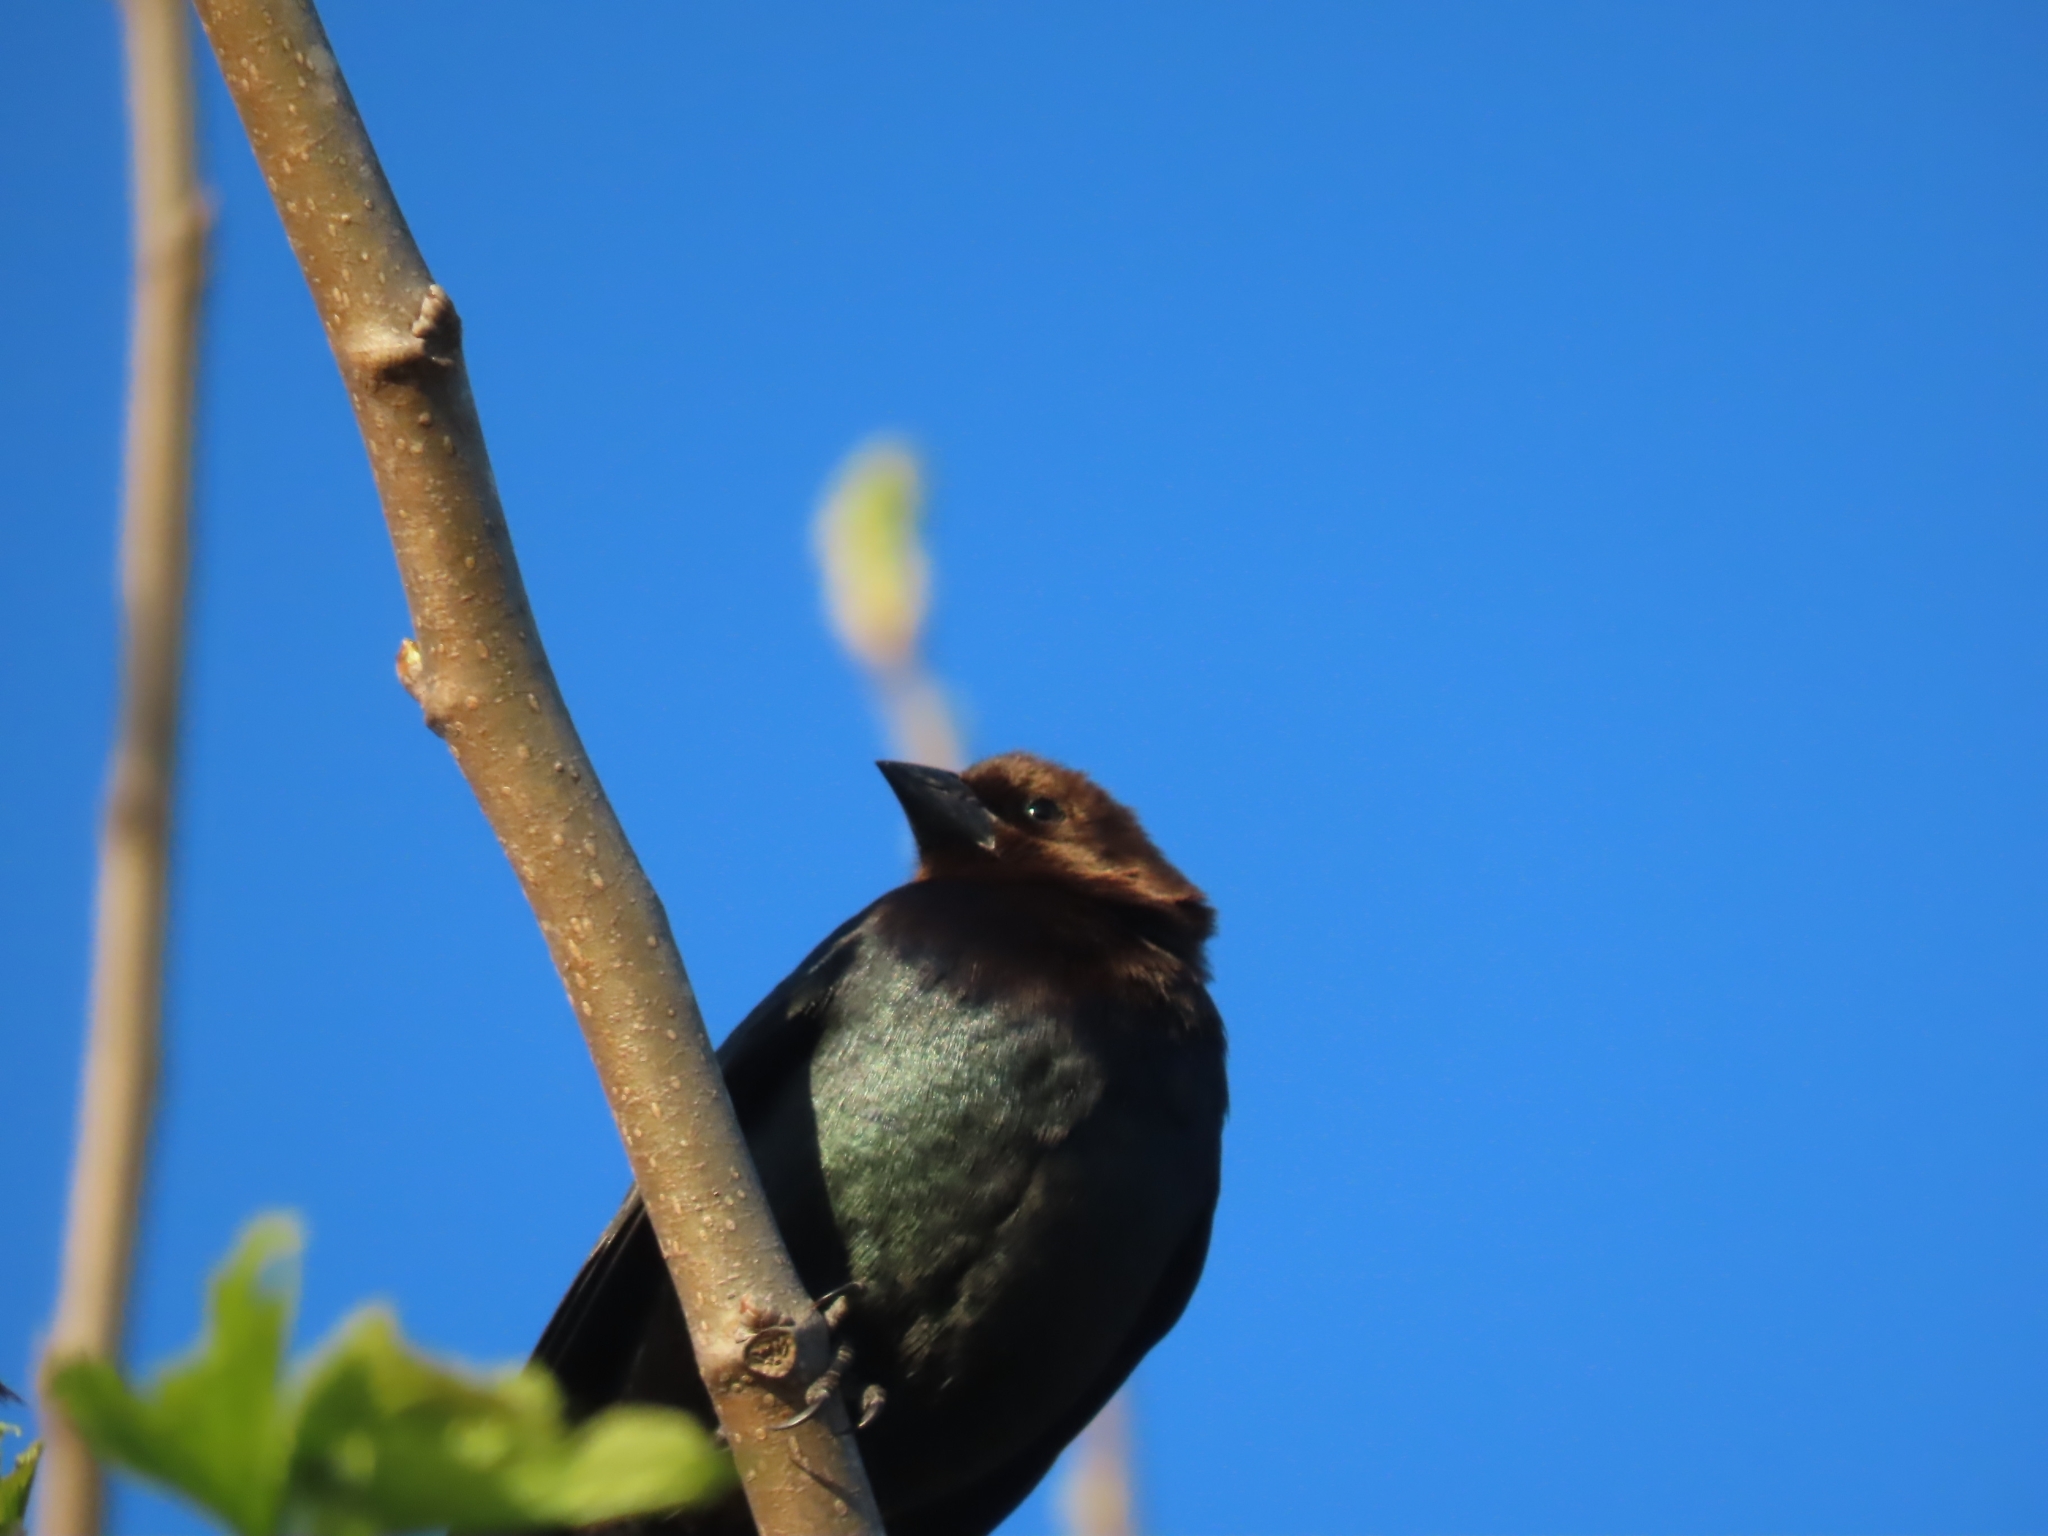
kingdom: Animalia
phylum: Chordata
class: Aves
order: Passeriformes
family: Icteridae
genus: Molothrus
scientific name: Molothrus ater
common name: Brown-headed cowbird
